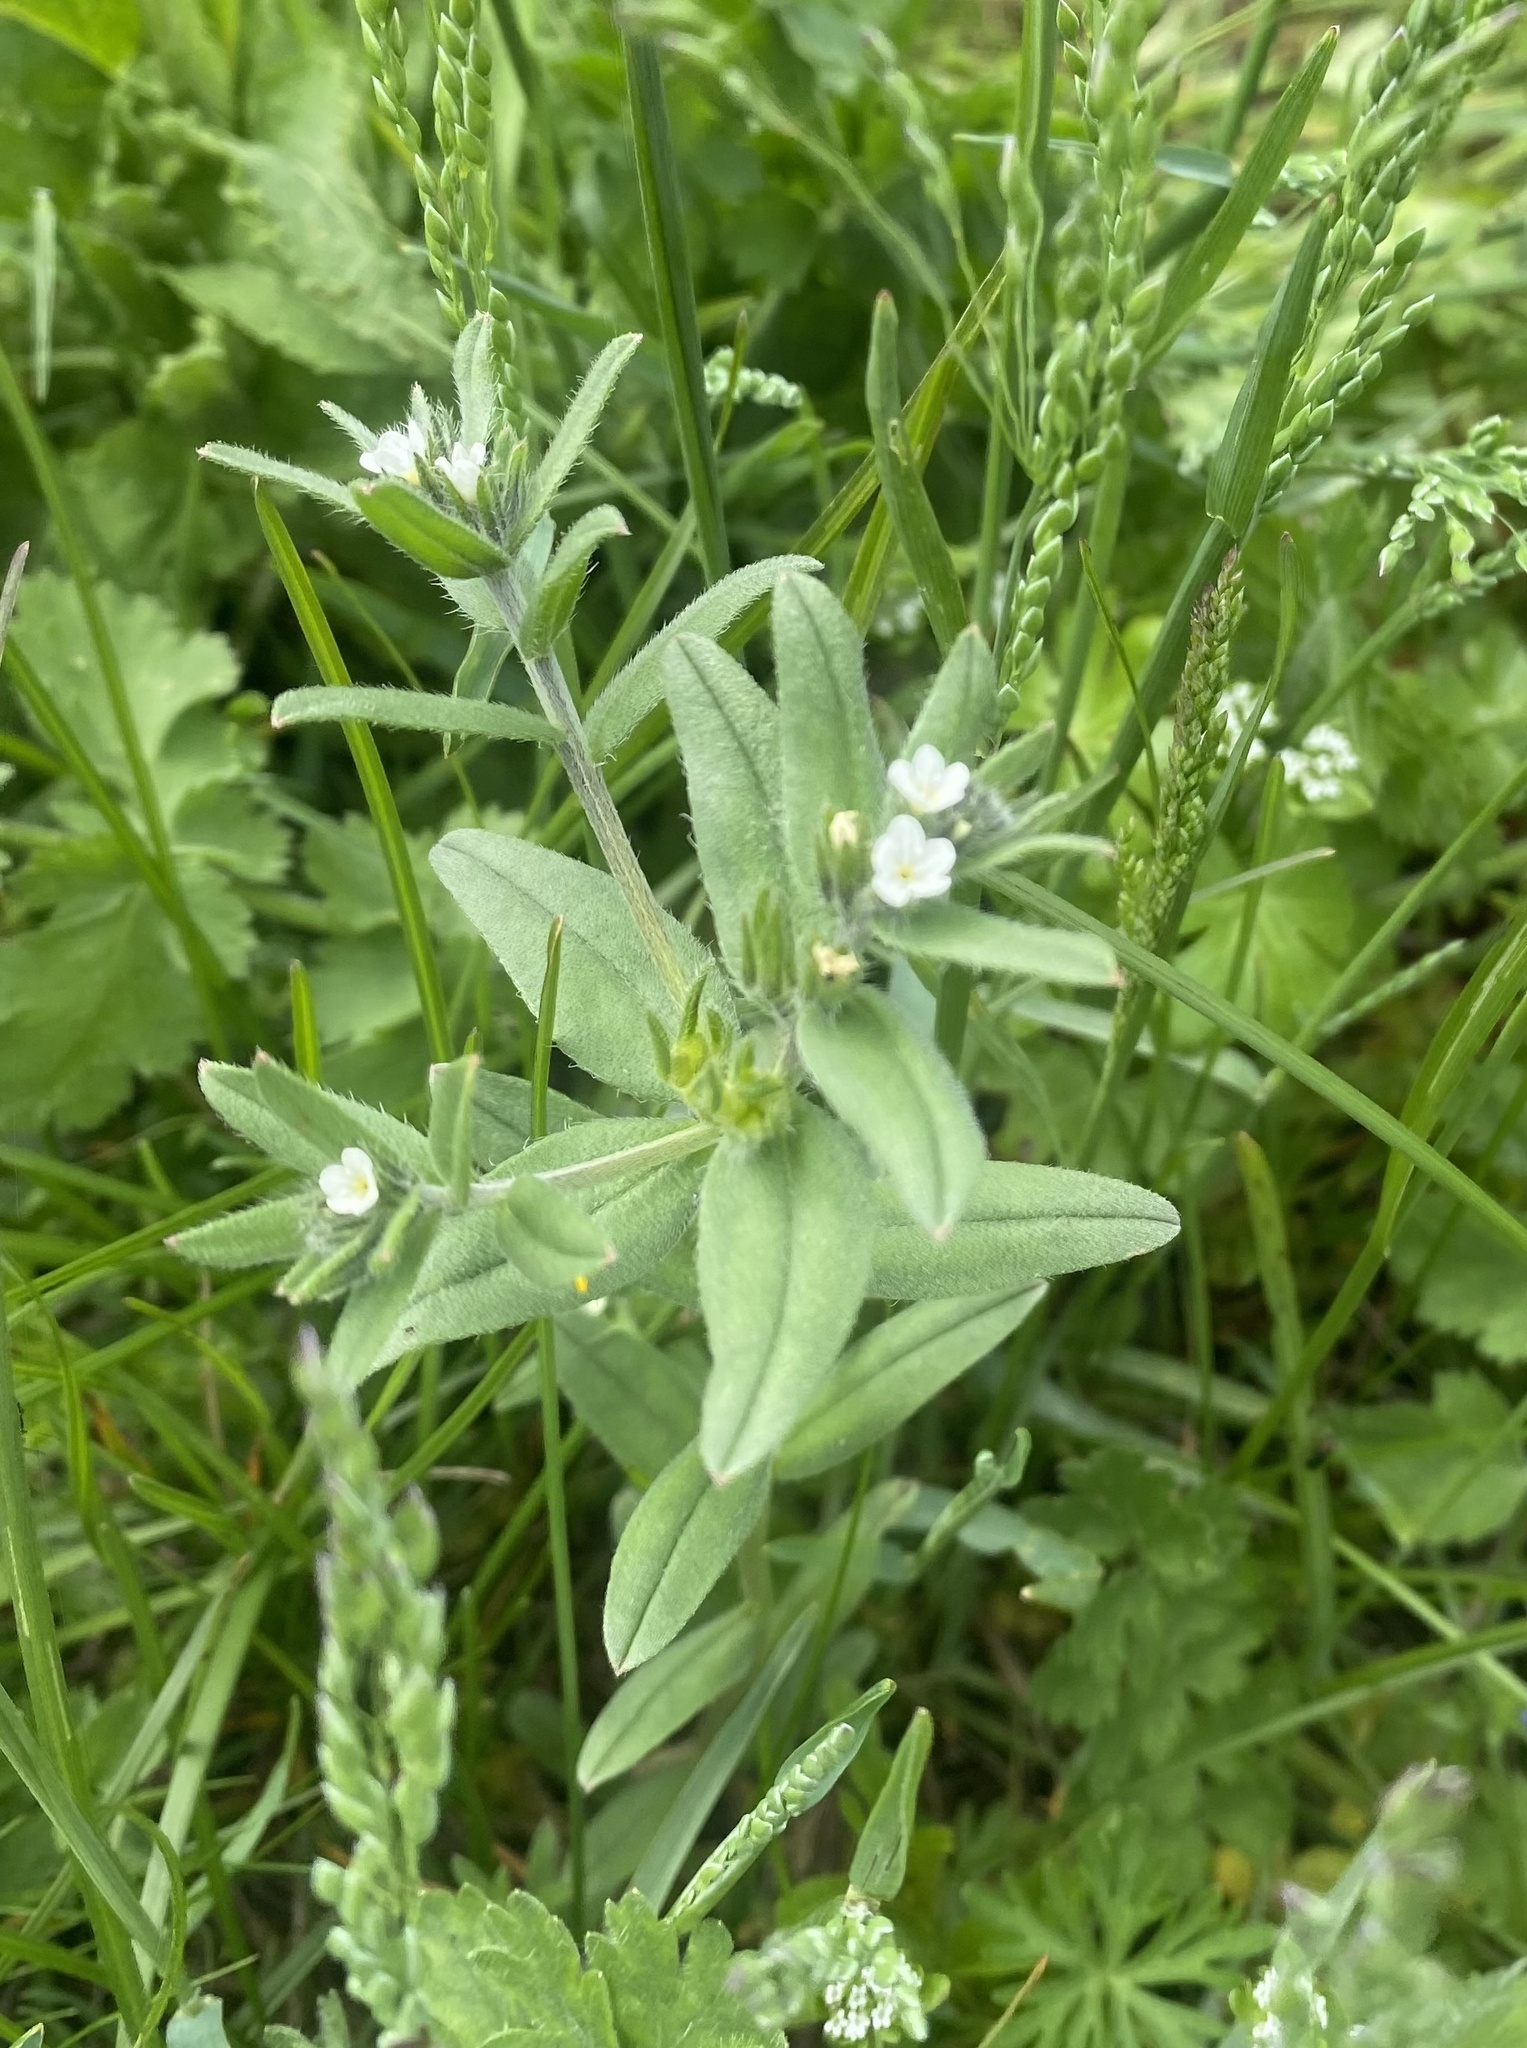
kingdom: Plantae
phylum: Tracheophyta
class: Magnoliopsida
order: Boraginales
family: Boraginaceae
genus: Buglossoides
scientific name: Buglossoides arvensis
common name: Corn gromwell
